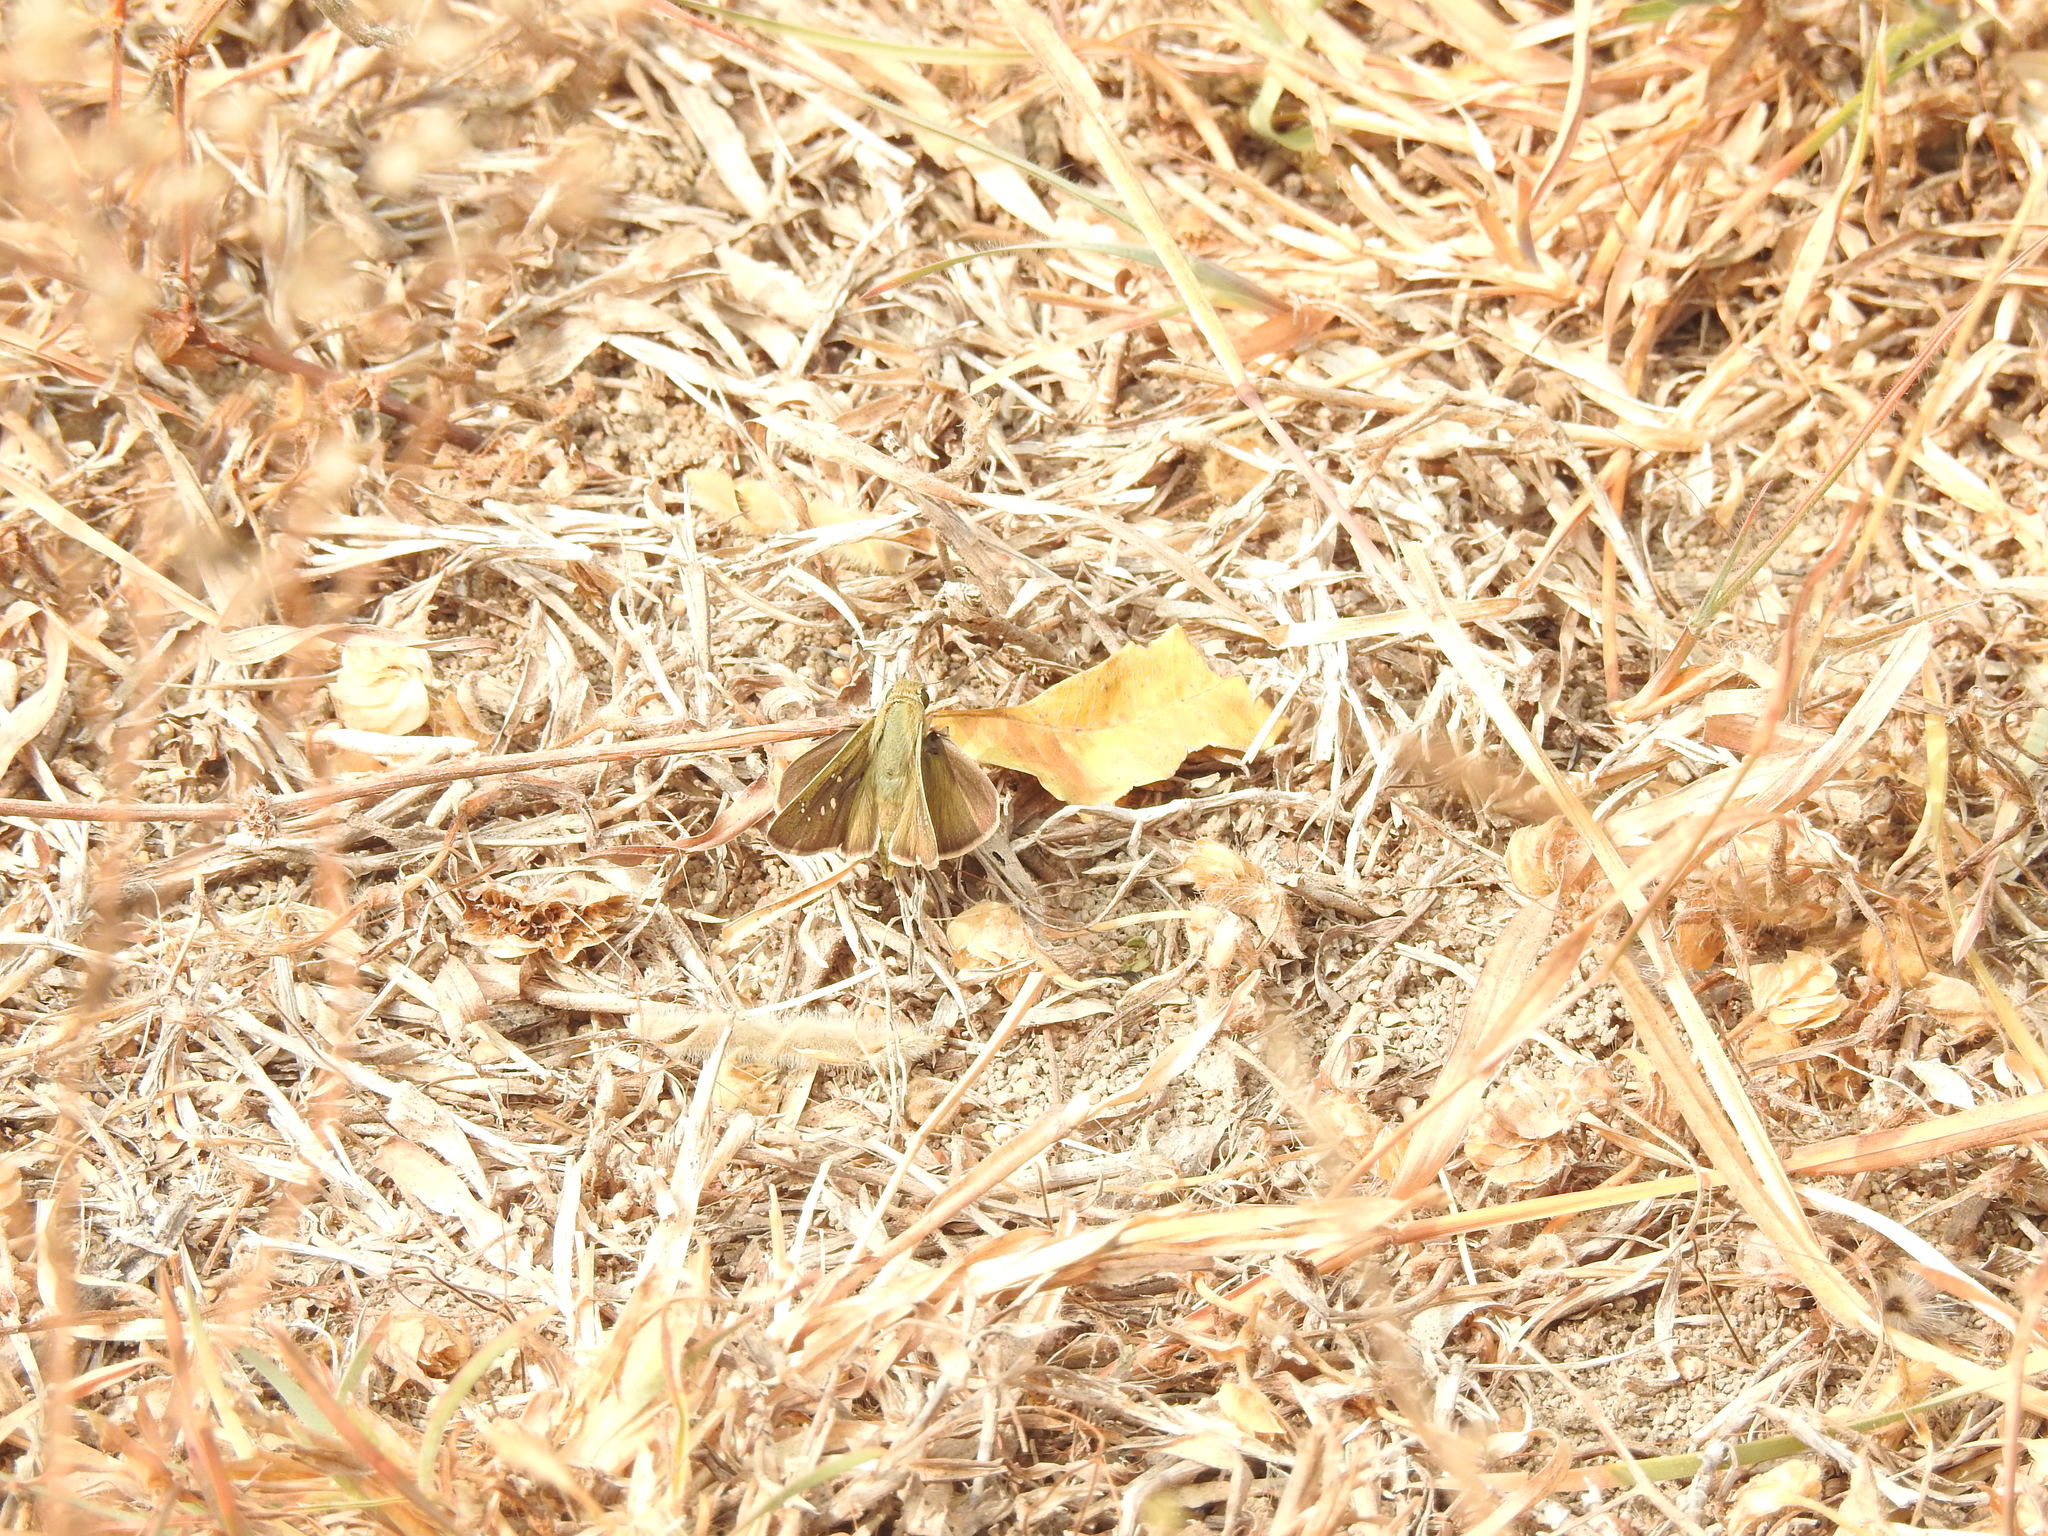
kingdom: Animalia
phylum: Arthropoda
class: Insecta
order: Lepidoptera
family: Hesperiidae
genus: Pelopidas
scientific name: Pelopidas mathias
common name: Black-branded swift
